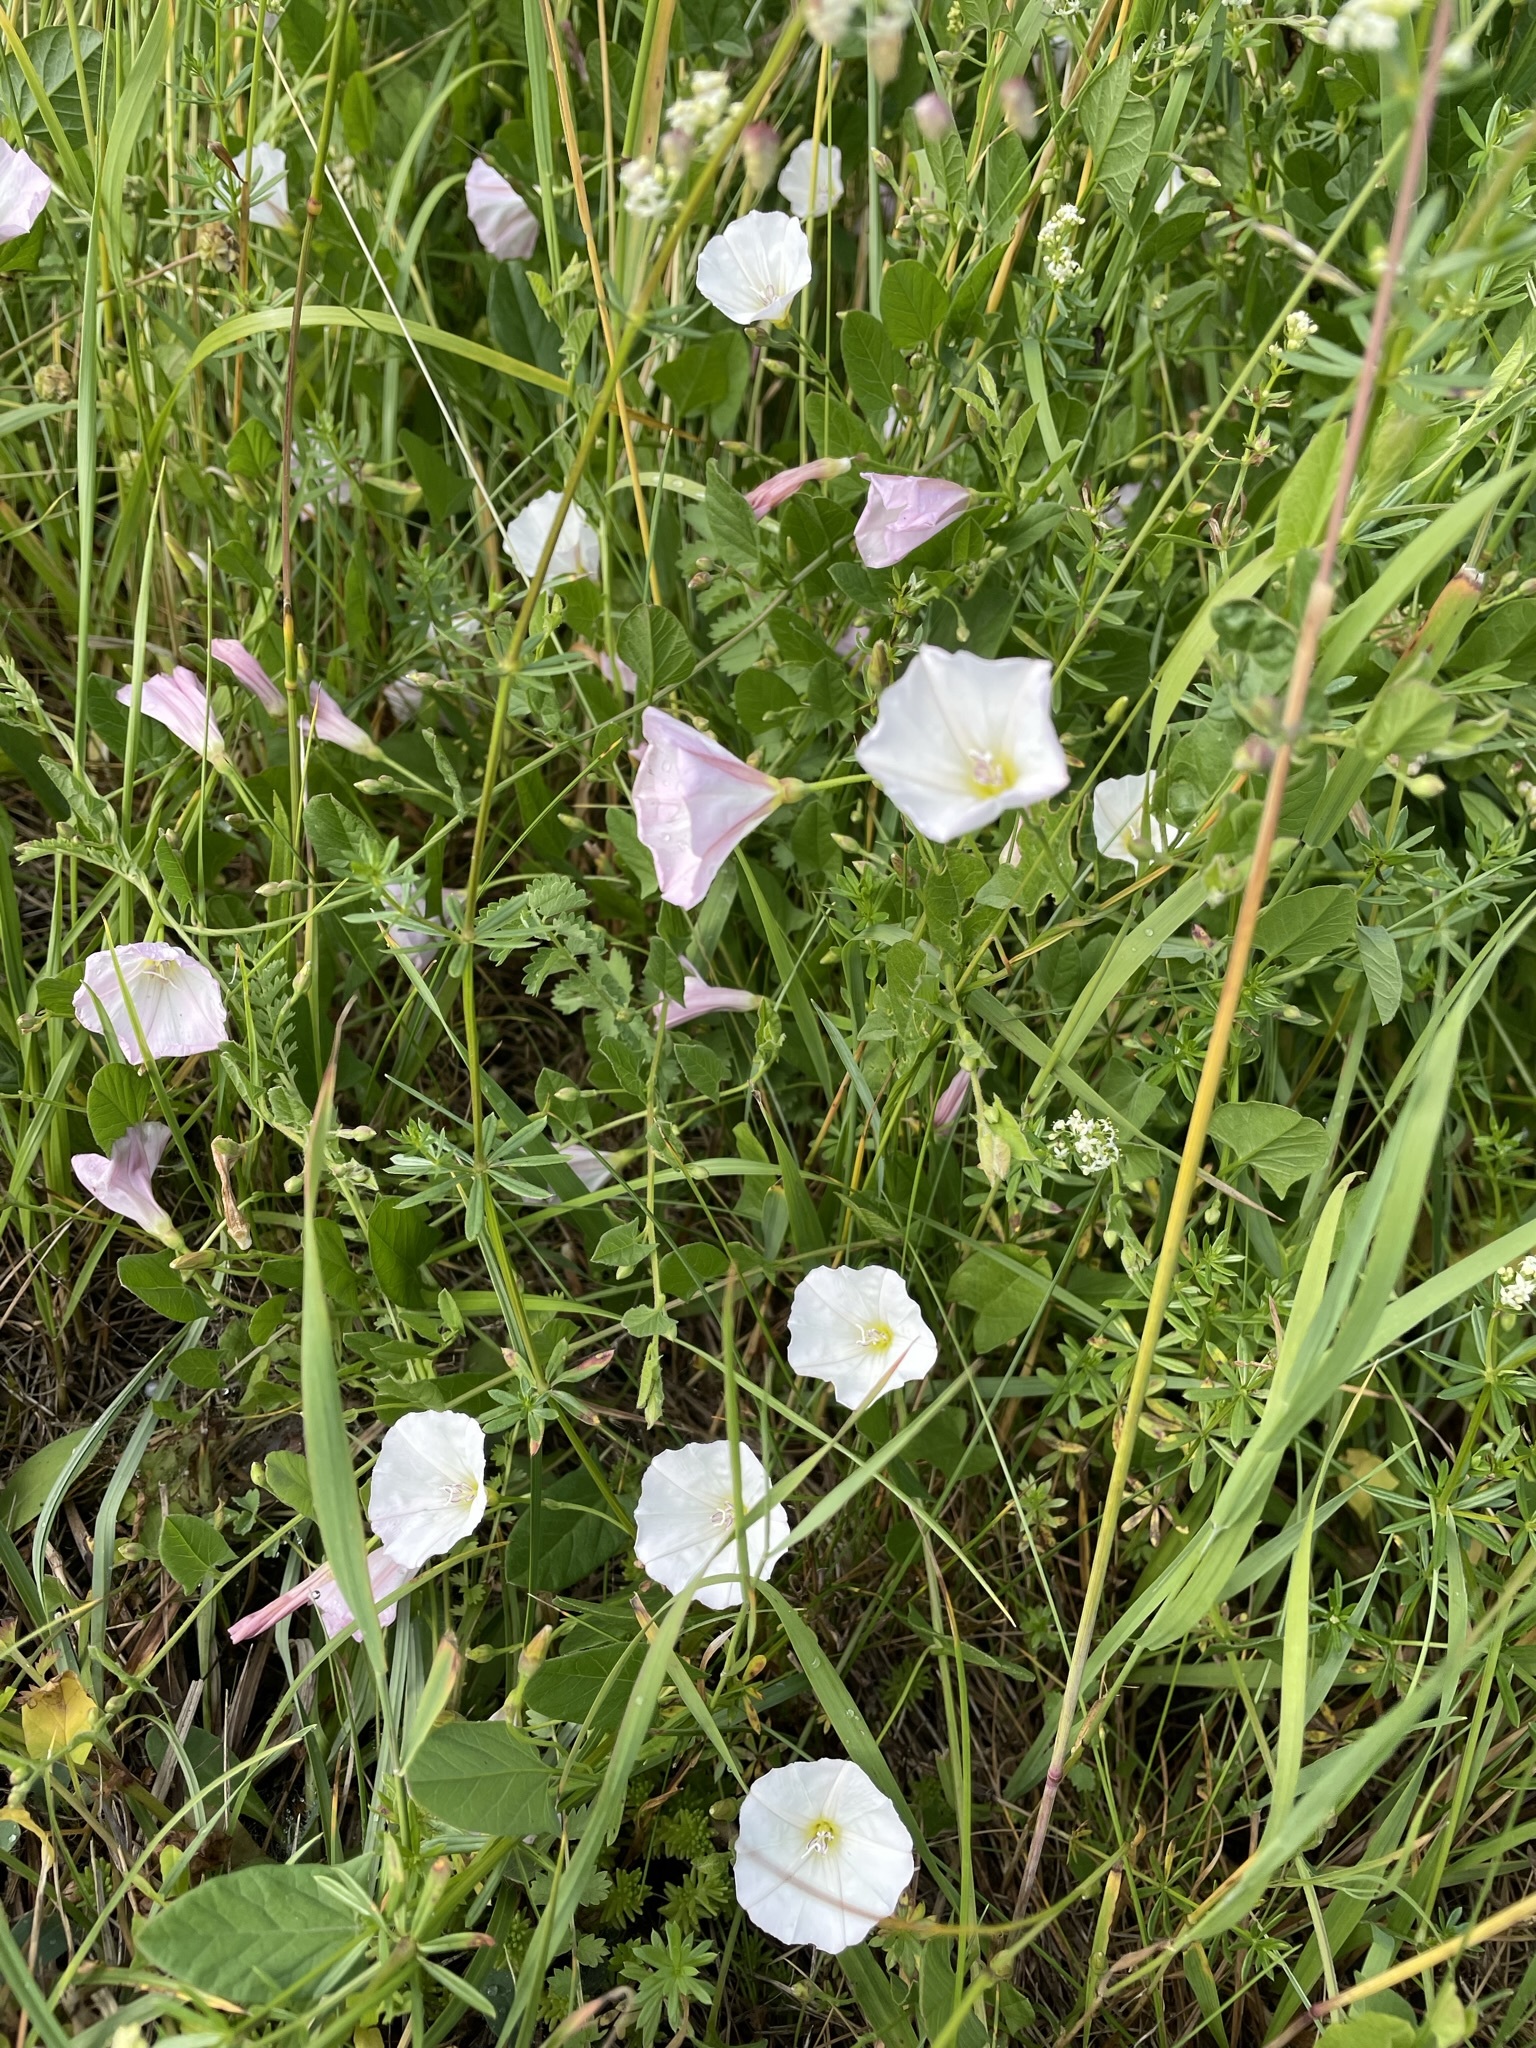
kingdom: Plantae
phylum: Tracheophyta
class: Magnoliopsida
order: Solanales
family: Convolvulaceae
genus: Convolvulus
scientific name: Convolvulus arvensis
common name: Field bindweed
